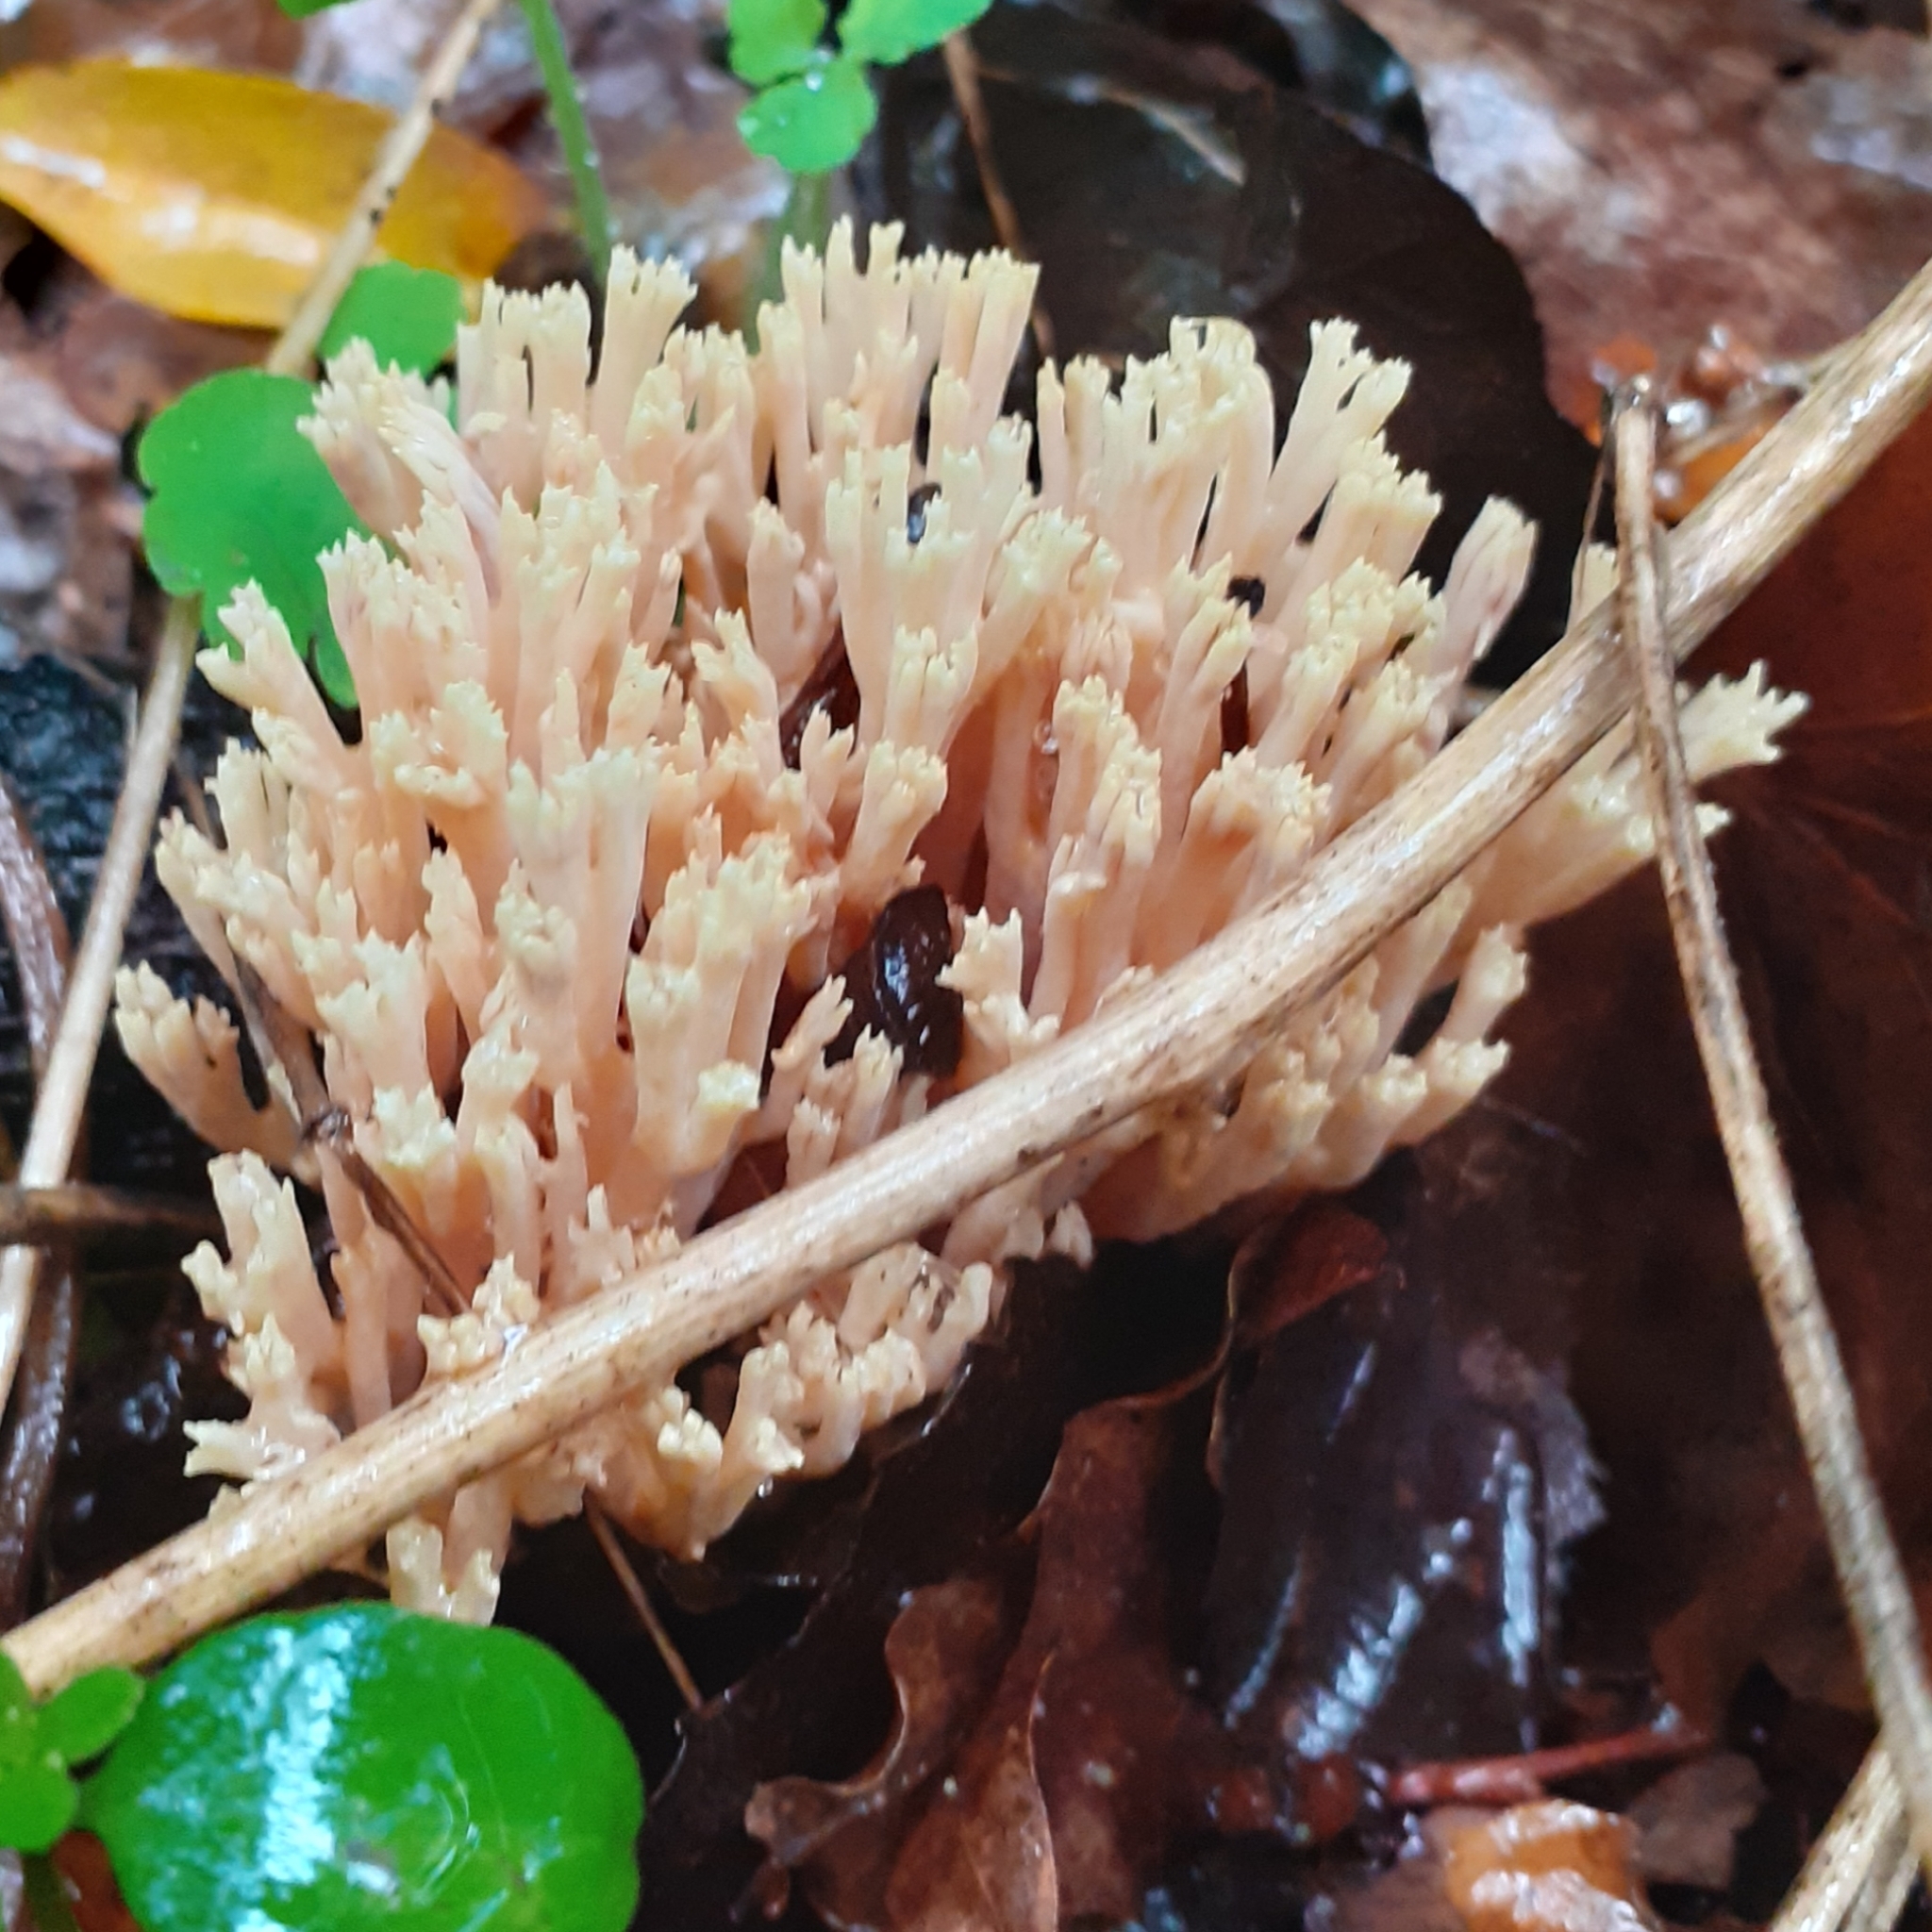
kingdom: Fungi
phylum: Basidiomycota
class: Agaricomycetes
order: Gomphales
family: Gomphaceae
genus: Ramaria
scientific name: Ramaria stricta
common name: Upright coral
